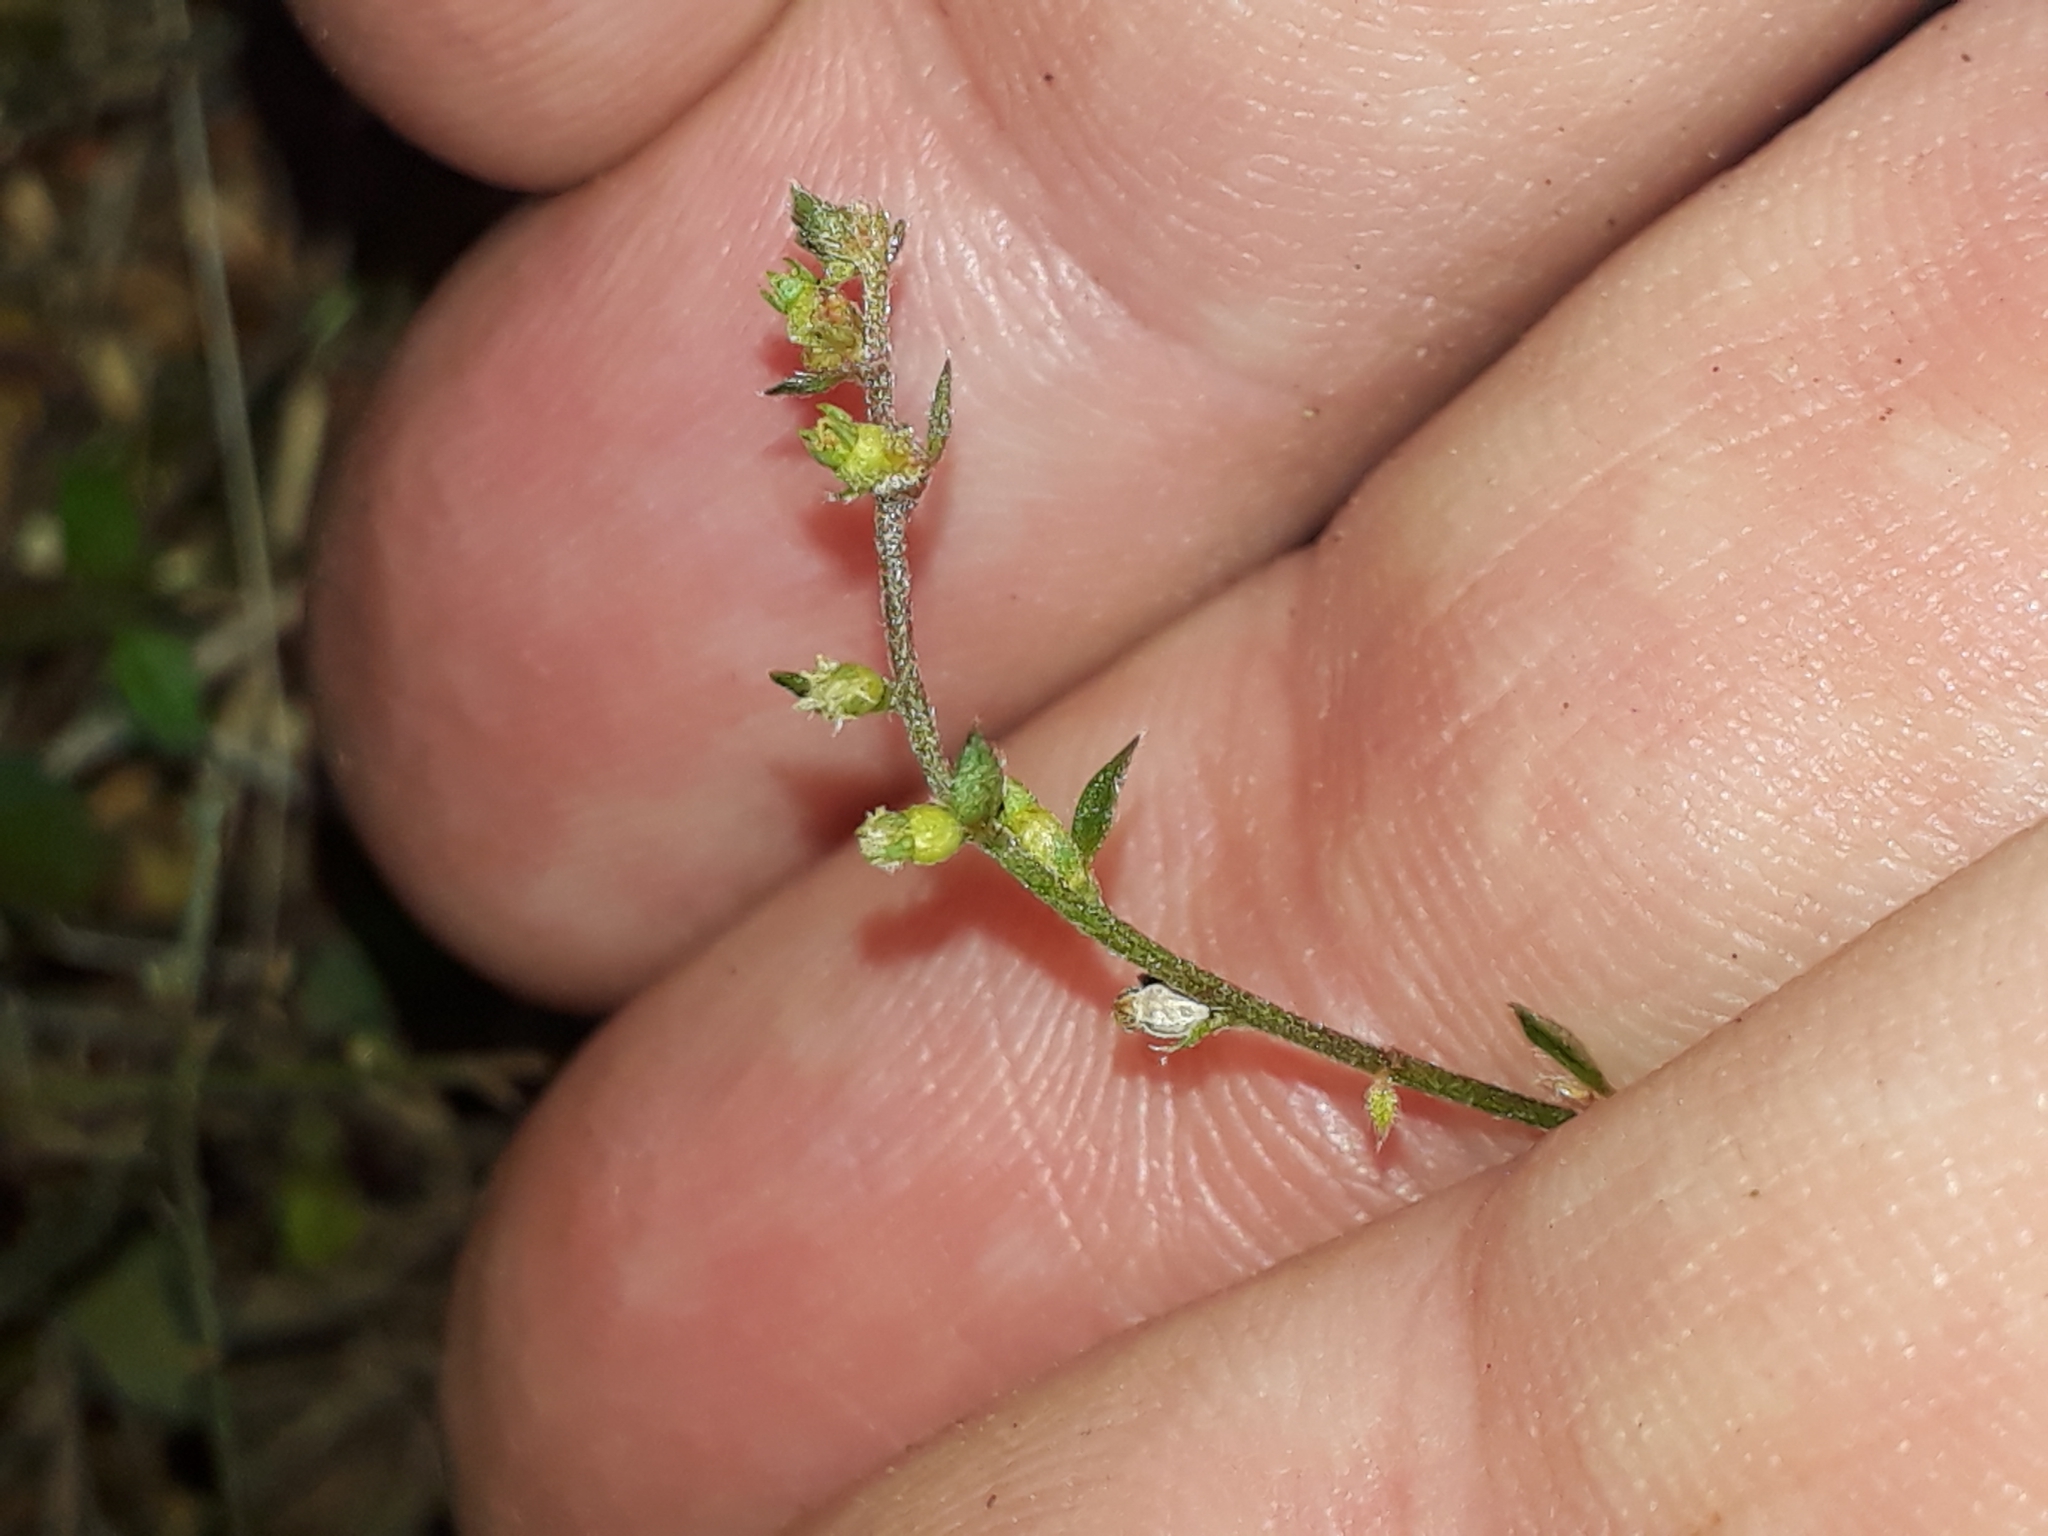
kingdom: Plantae
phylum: Tracheophyta
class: Magnoliopsida
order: Saxifragales
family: Haloragaceae
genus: Gonocarpus
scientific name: Gonocarpus incanus
